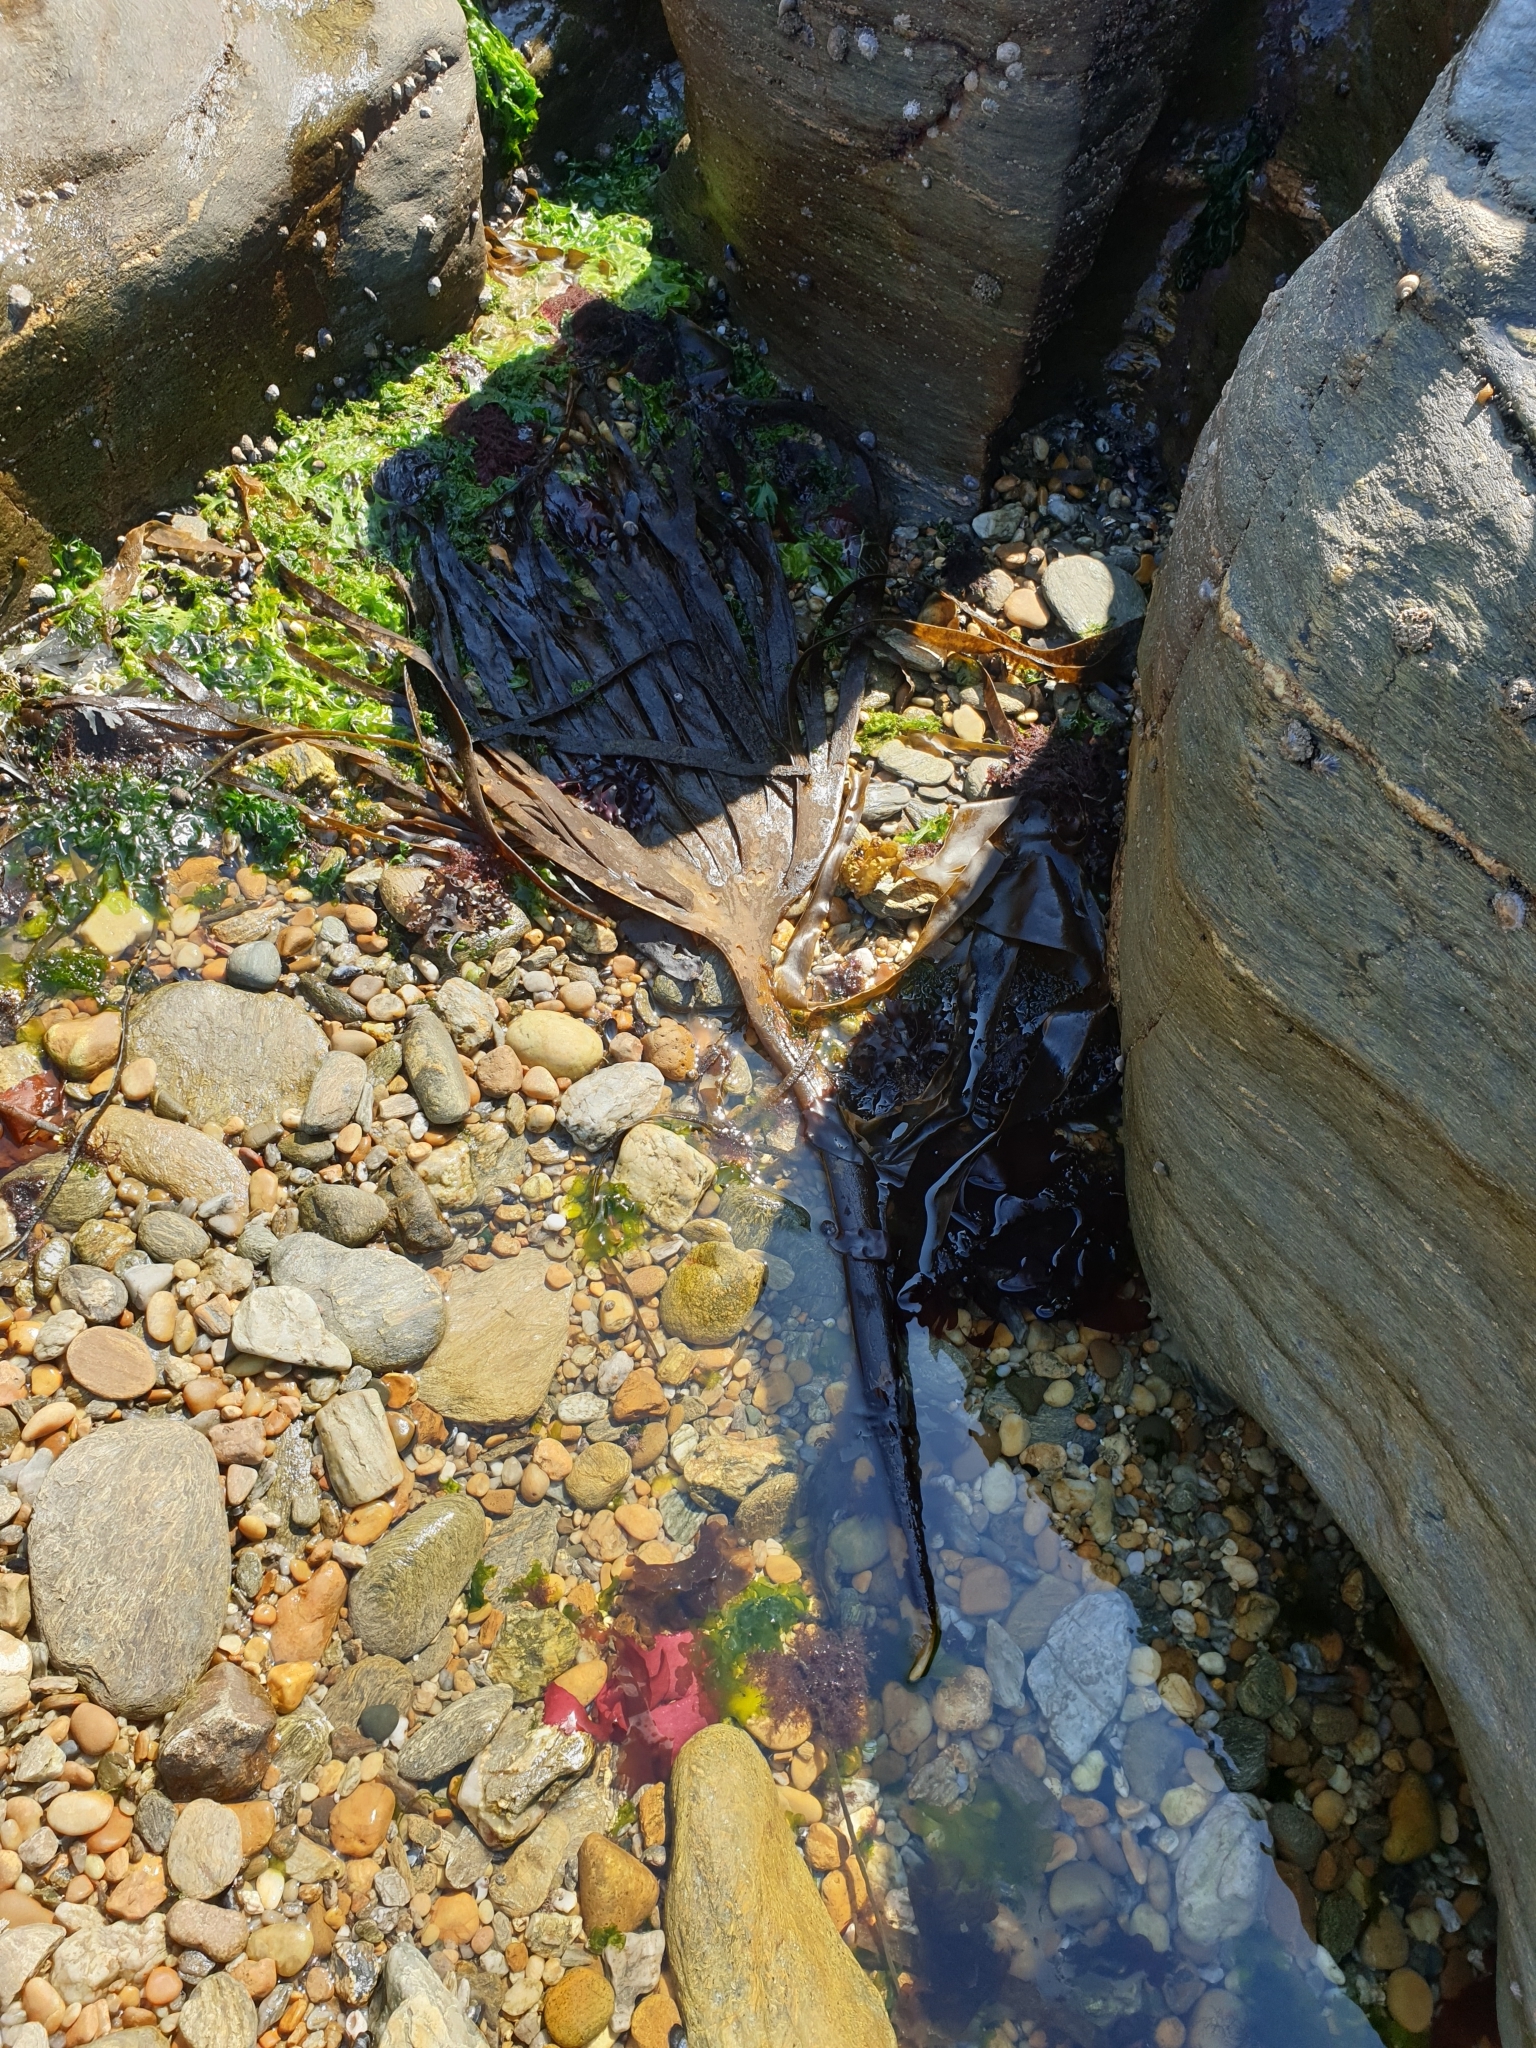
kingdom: Chromista
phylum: Ochrophyta
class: Phaeophyceae
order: Tilopteridales
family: Phyllariaceae
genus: Saccorhiza
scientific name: Saccorhiza polyschides
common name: Furbelows
